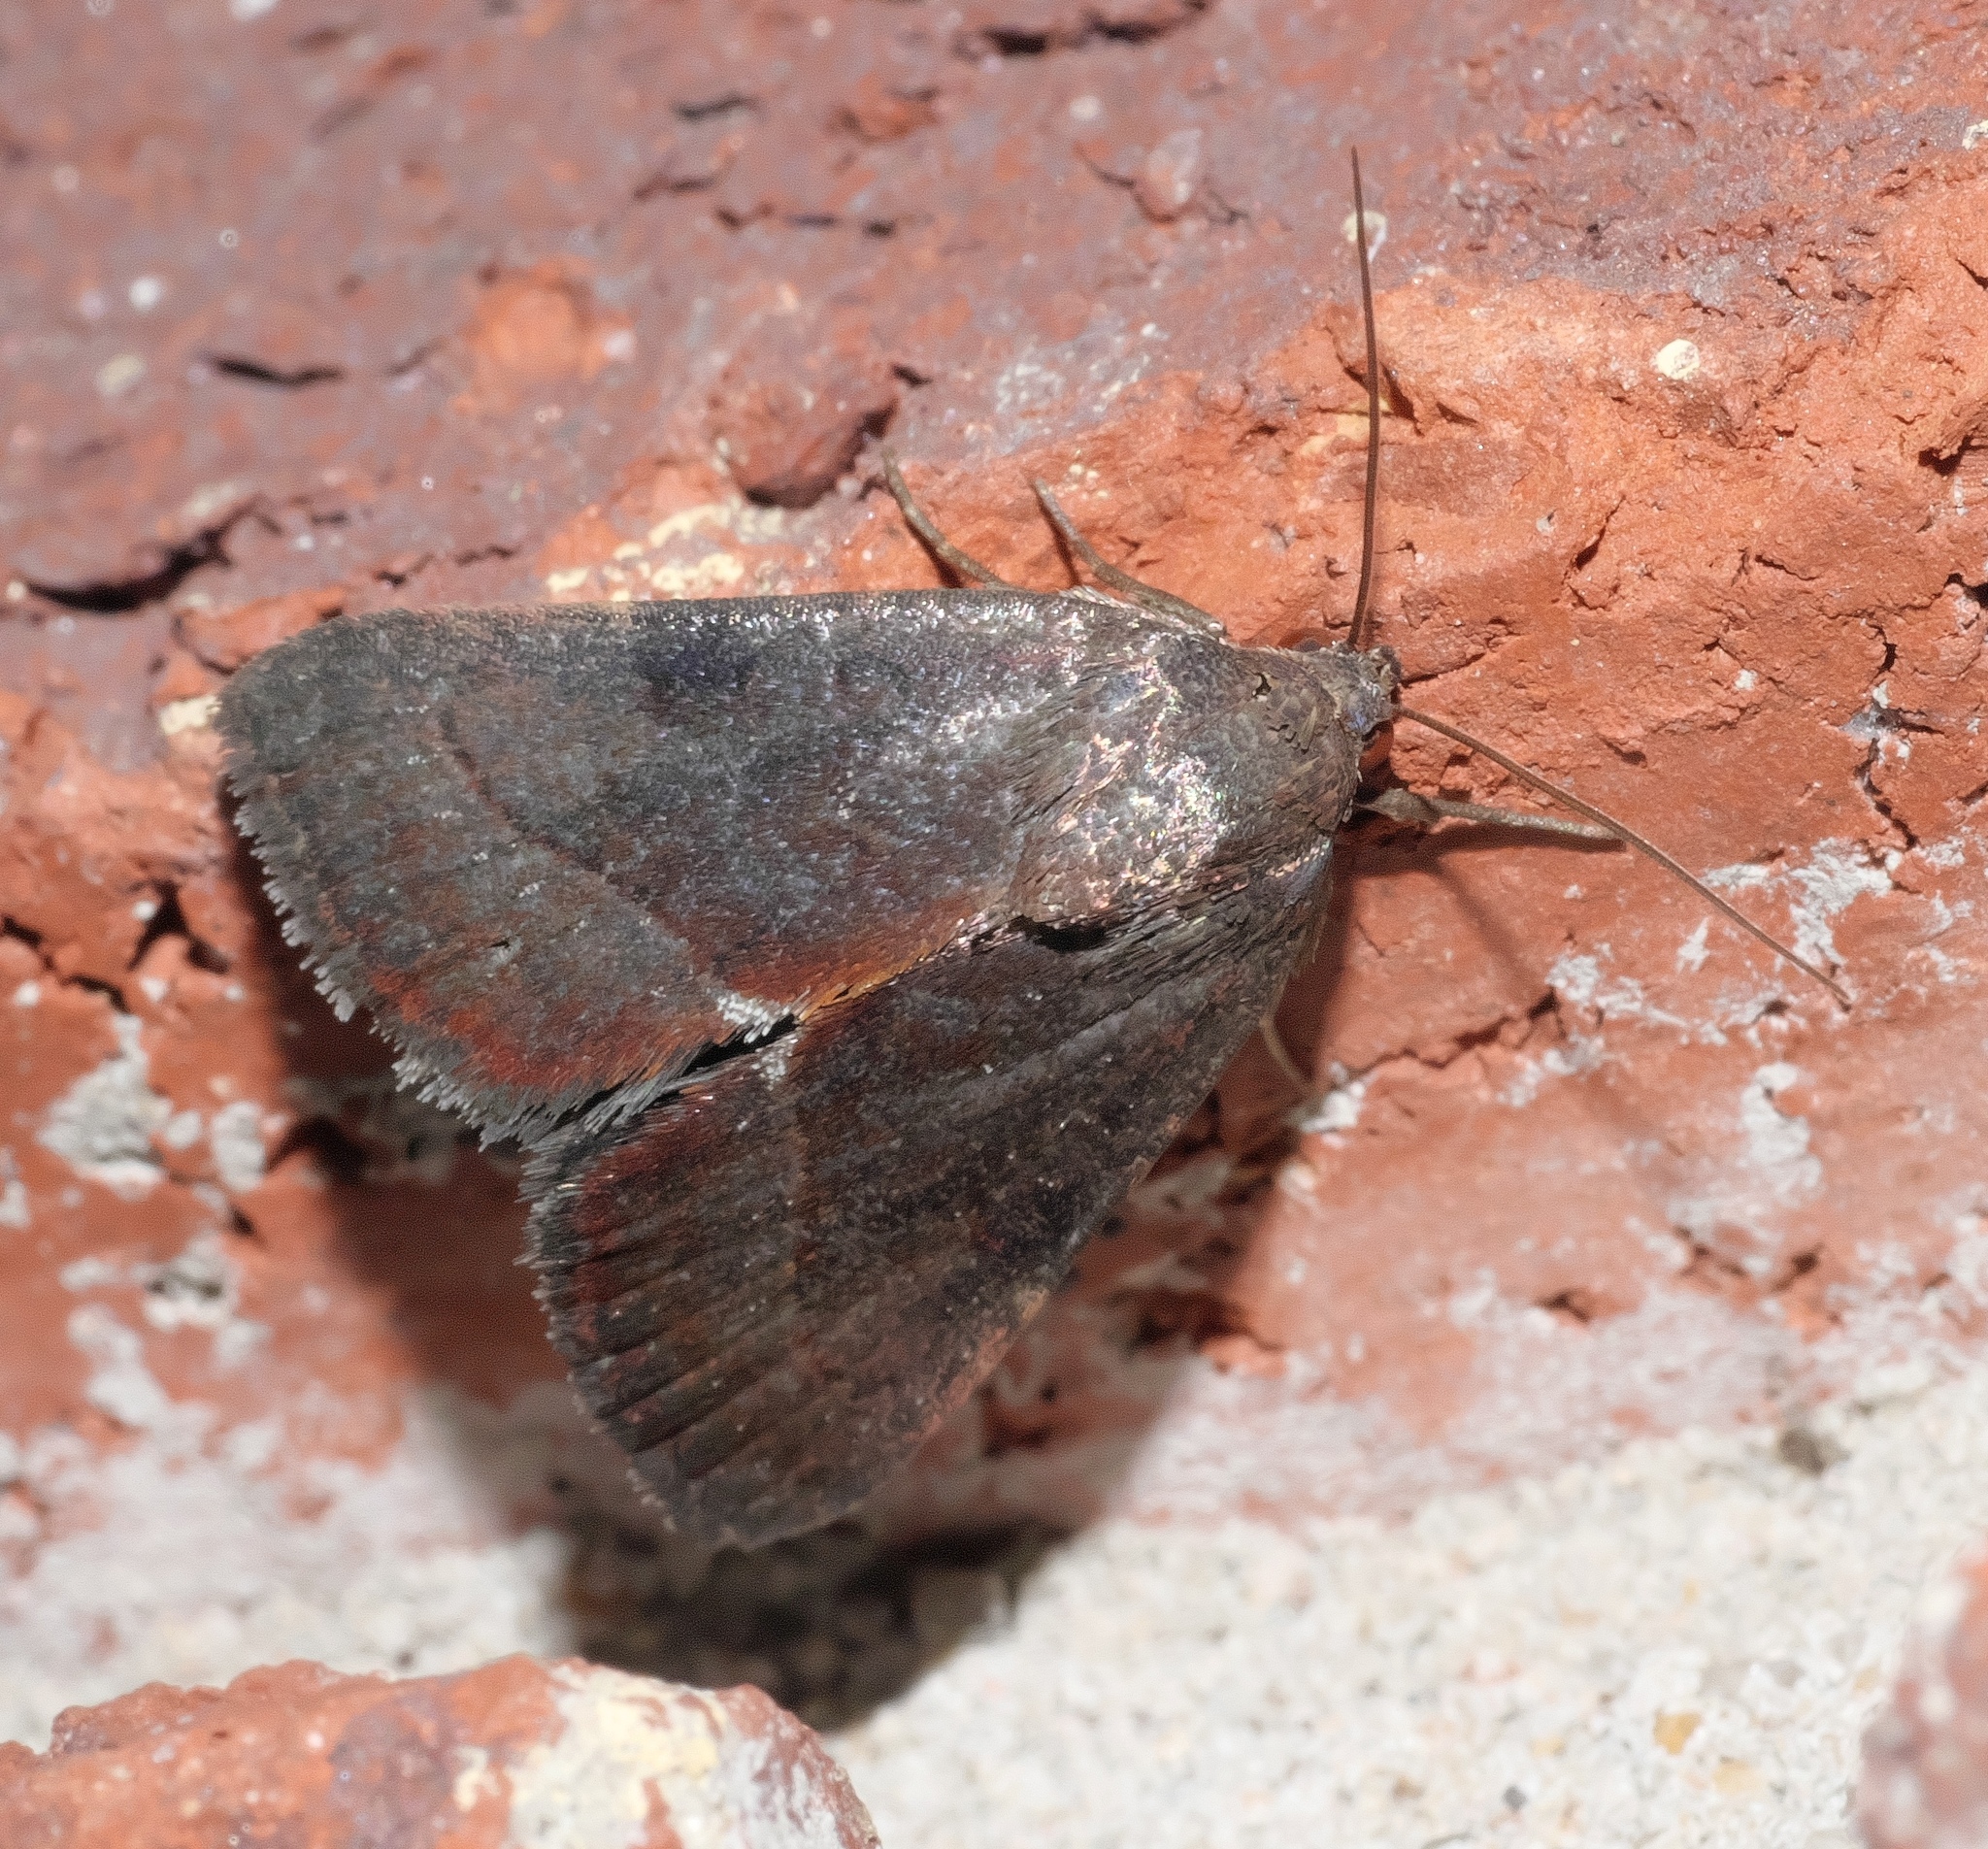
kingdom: Animalia
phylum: Arthropoda
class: Insecta
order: Lepidoptera
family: Noctuidae
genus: Galgula
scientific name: Galgula partita
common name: Wedgeling
